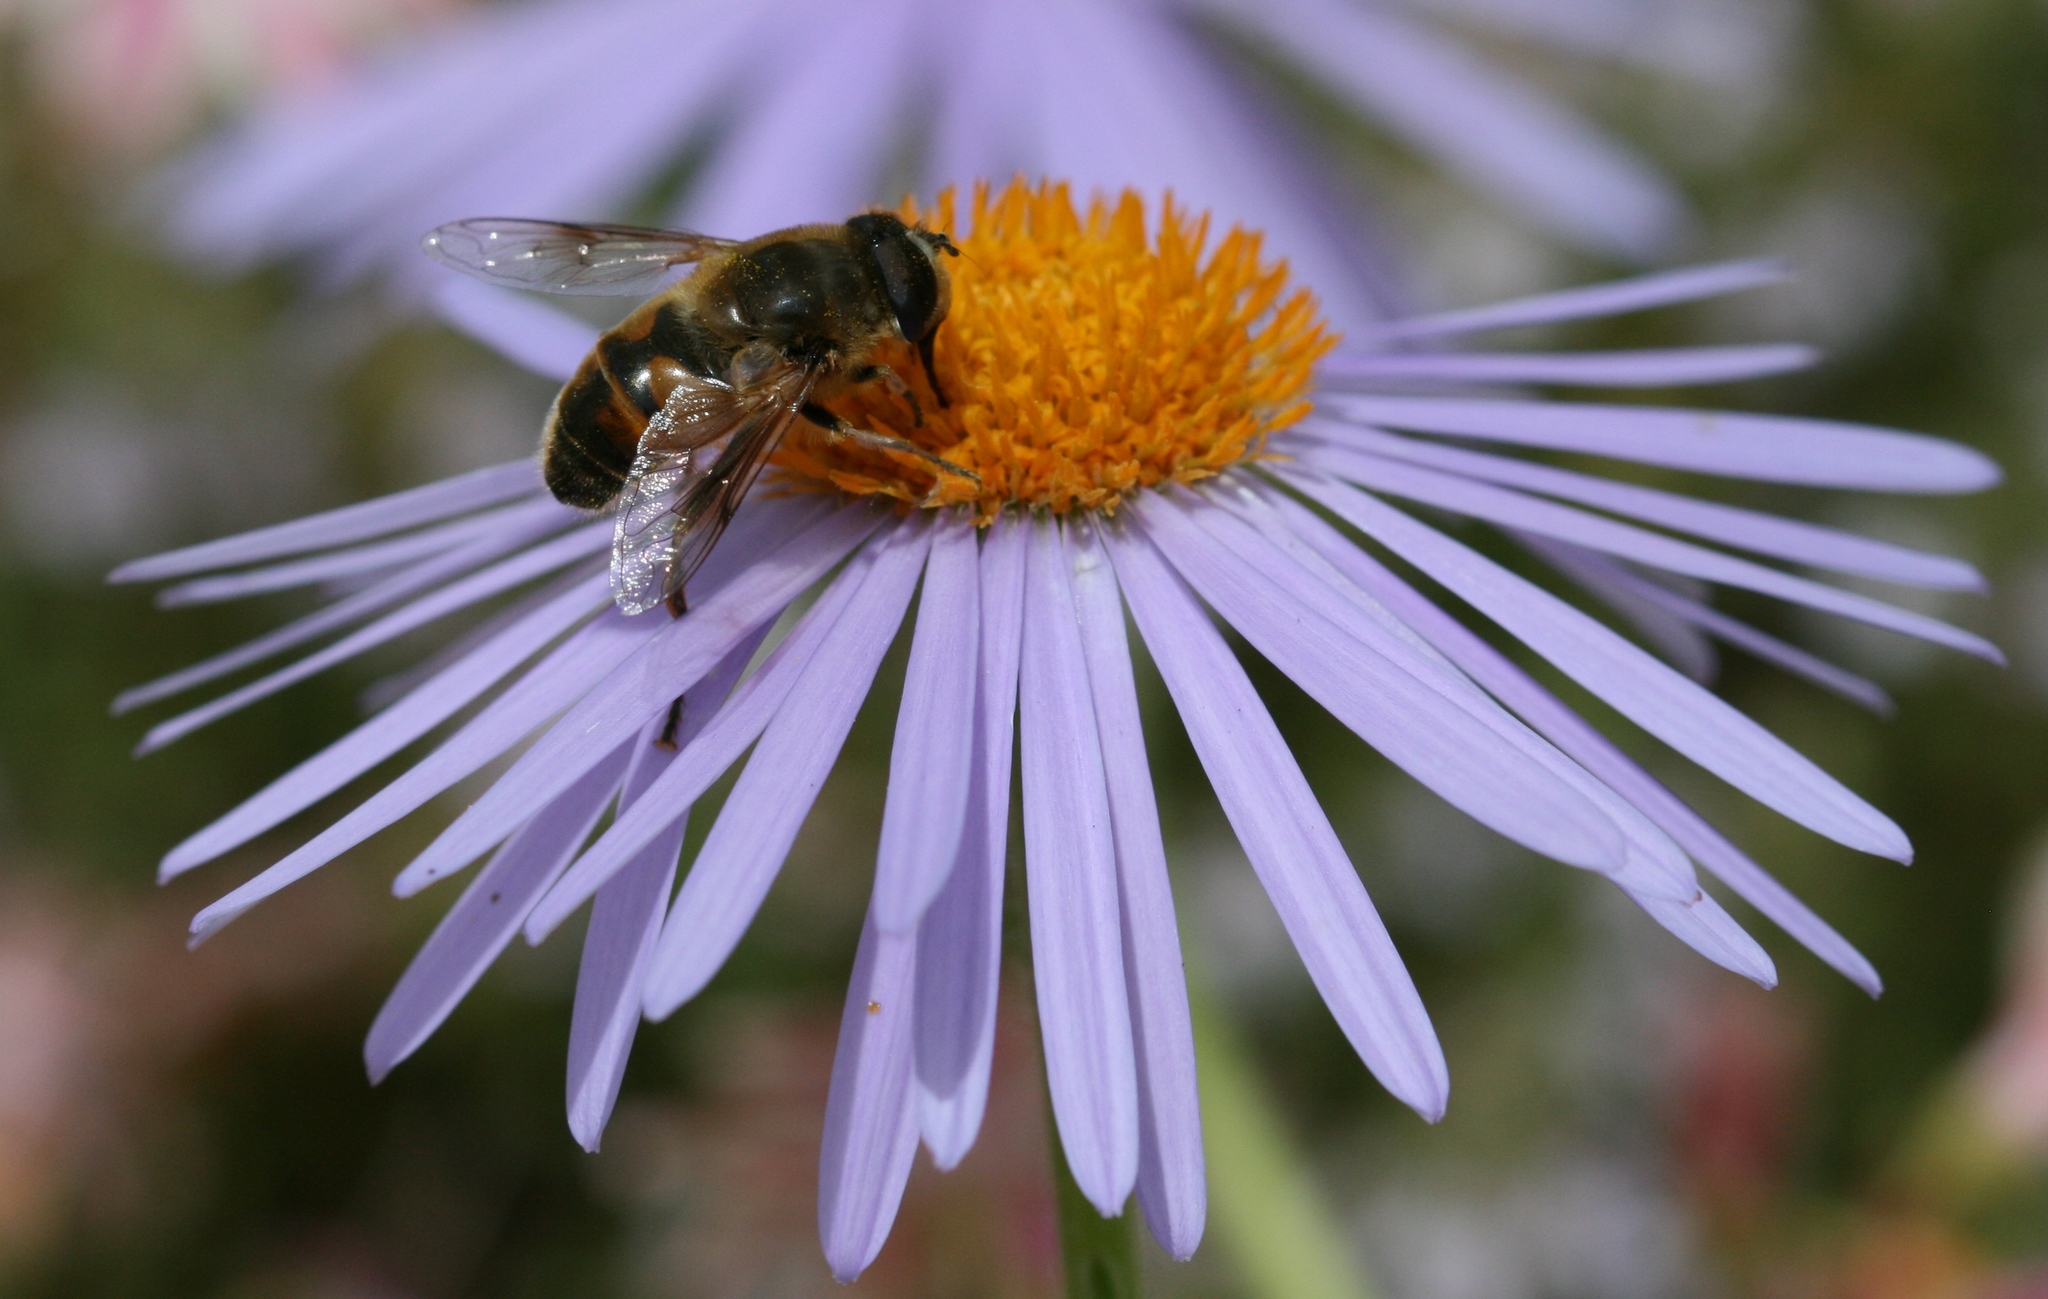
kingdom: Animalia
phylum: Arthropoda
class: Insecta
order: Diptera
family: Syrphidae
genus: Eristalis
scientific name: Eristalis tenax
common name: Drone fly
